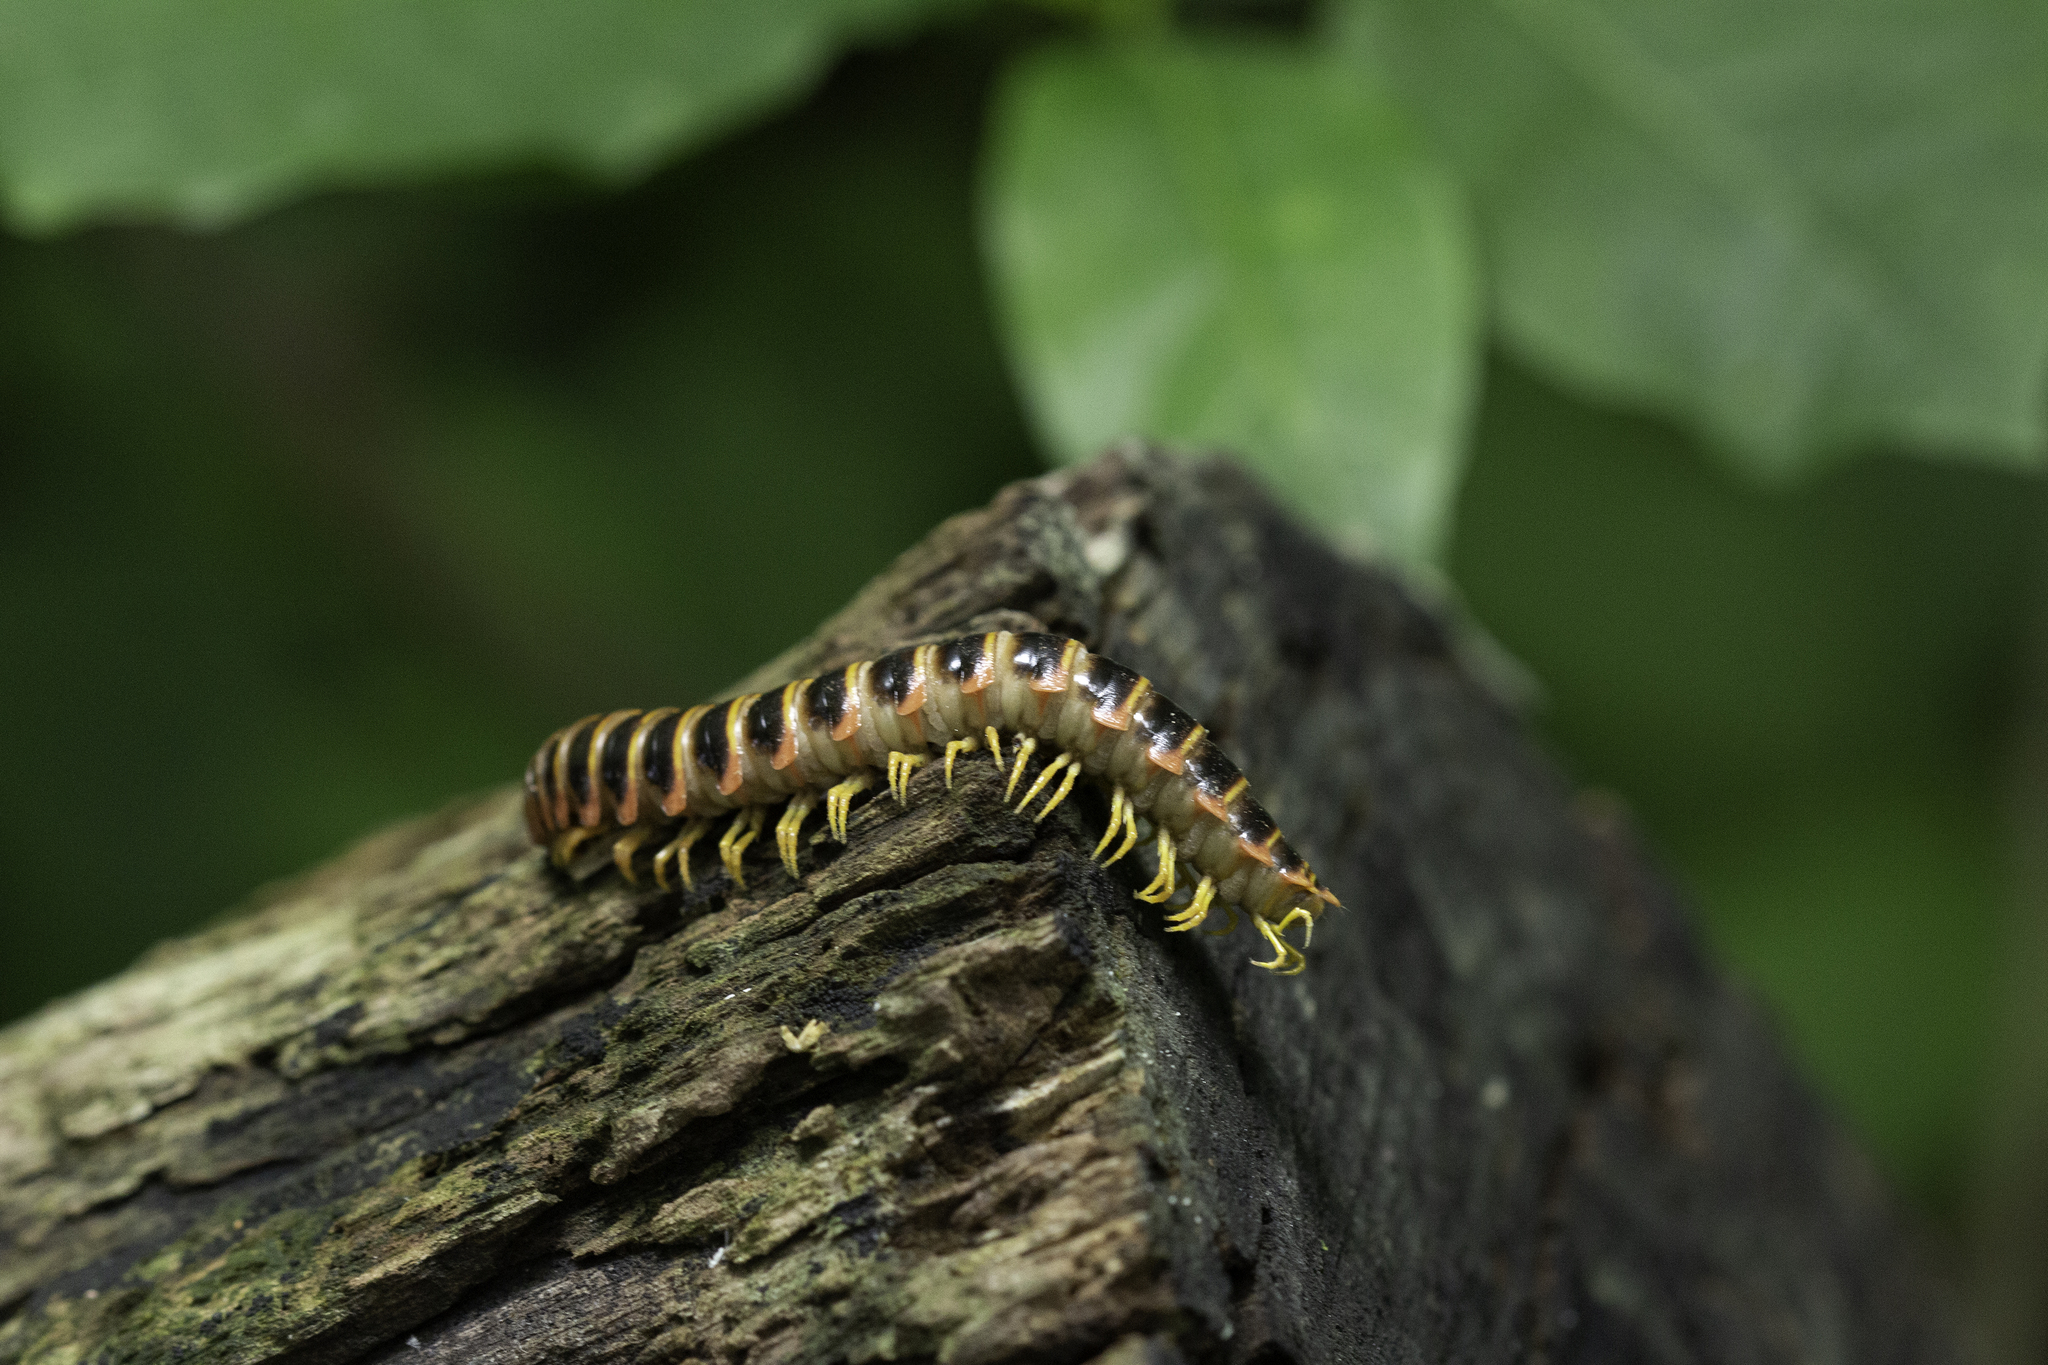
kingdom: Animalia
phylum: Arthropoda
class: Diplopoda
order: Polydesmida
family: Xystodesmidae
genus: Apheloria
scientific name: Apheloria virginiensis
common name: Black-and-gold flat millipede
